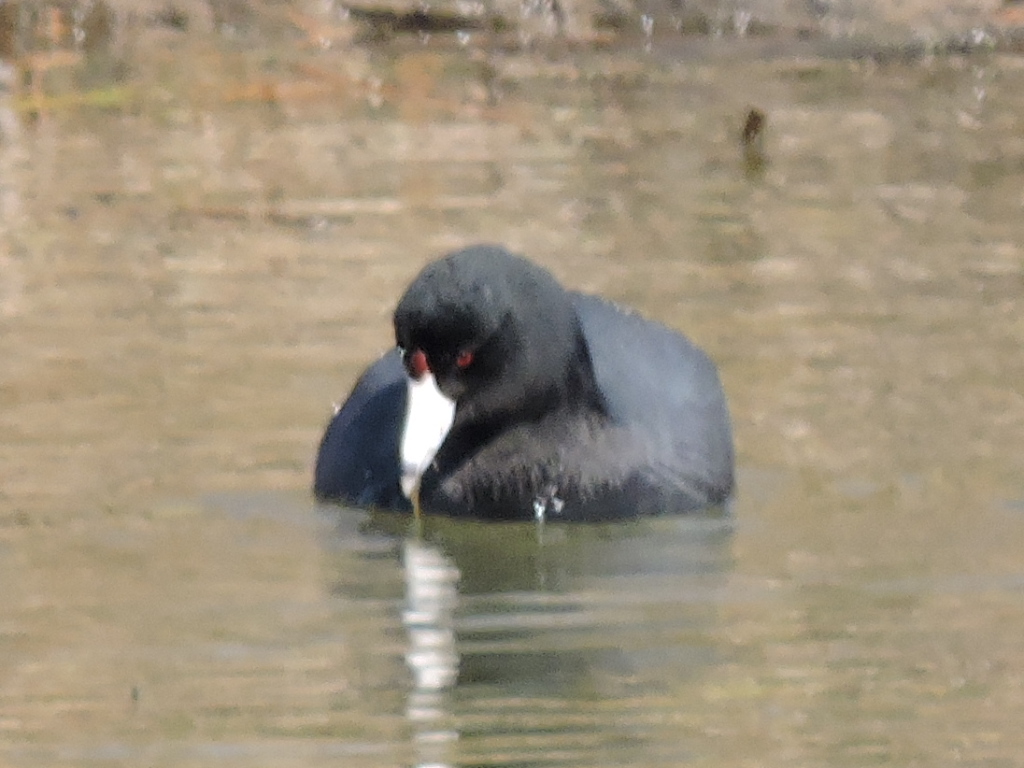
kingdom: Animalia
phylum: Chordata
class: Aves
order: Gruiformes
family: Rallidae
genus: Fulica
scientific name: Fulica americana
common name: American coot
